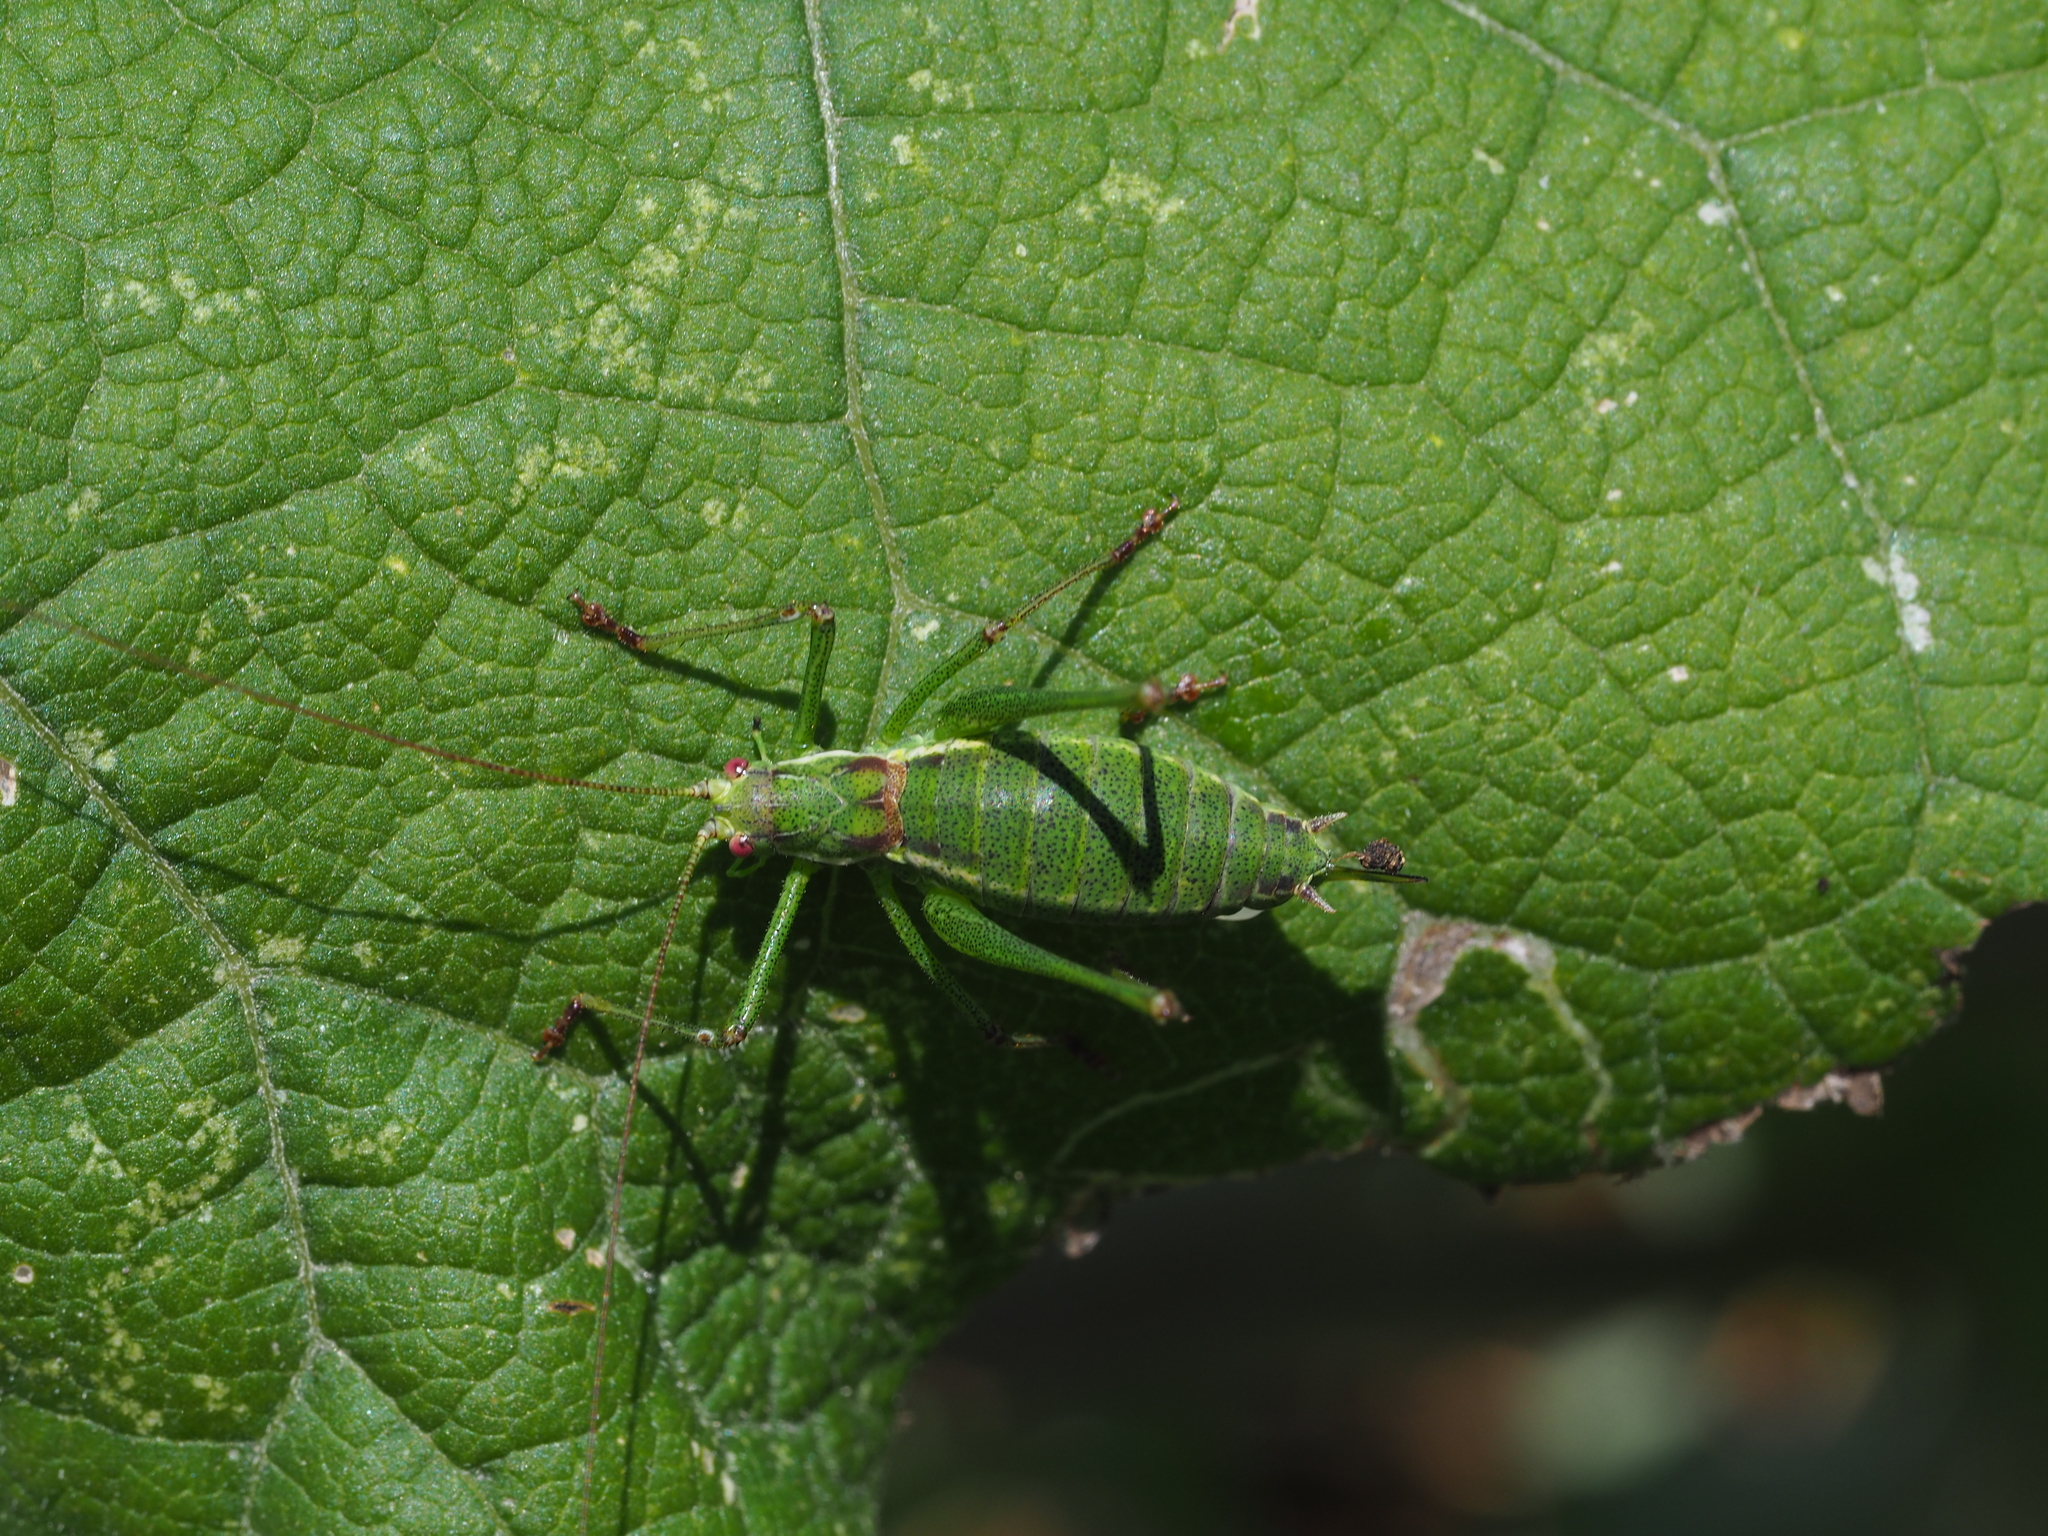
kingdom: Animalia
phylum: Arthropoda
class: Insecta
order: Orthoptera
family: Tettigoniidae
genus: Leptophyes
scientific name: Leptophyes albovittata
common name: Striped bush-cricket
